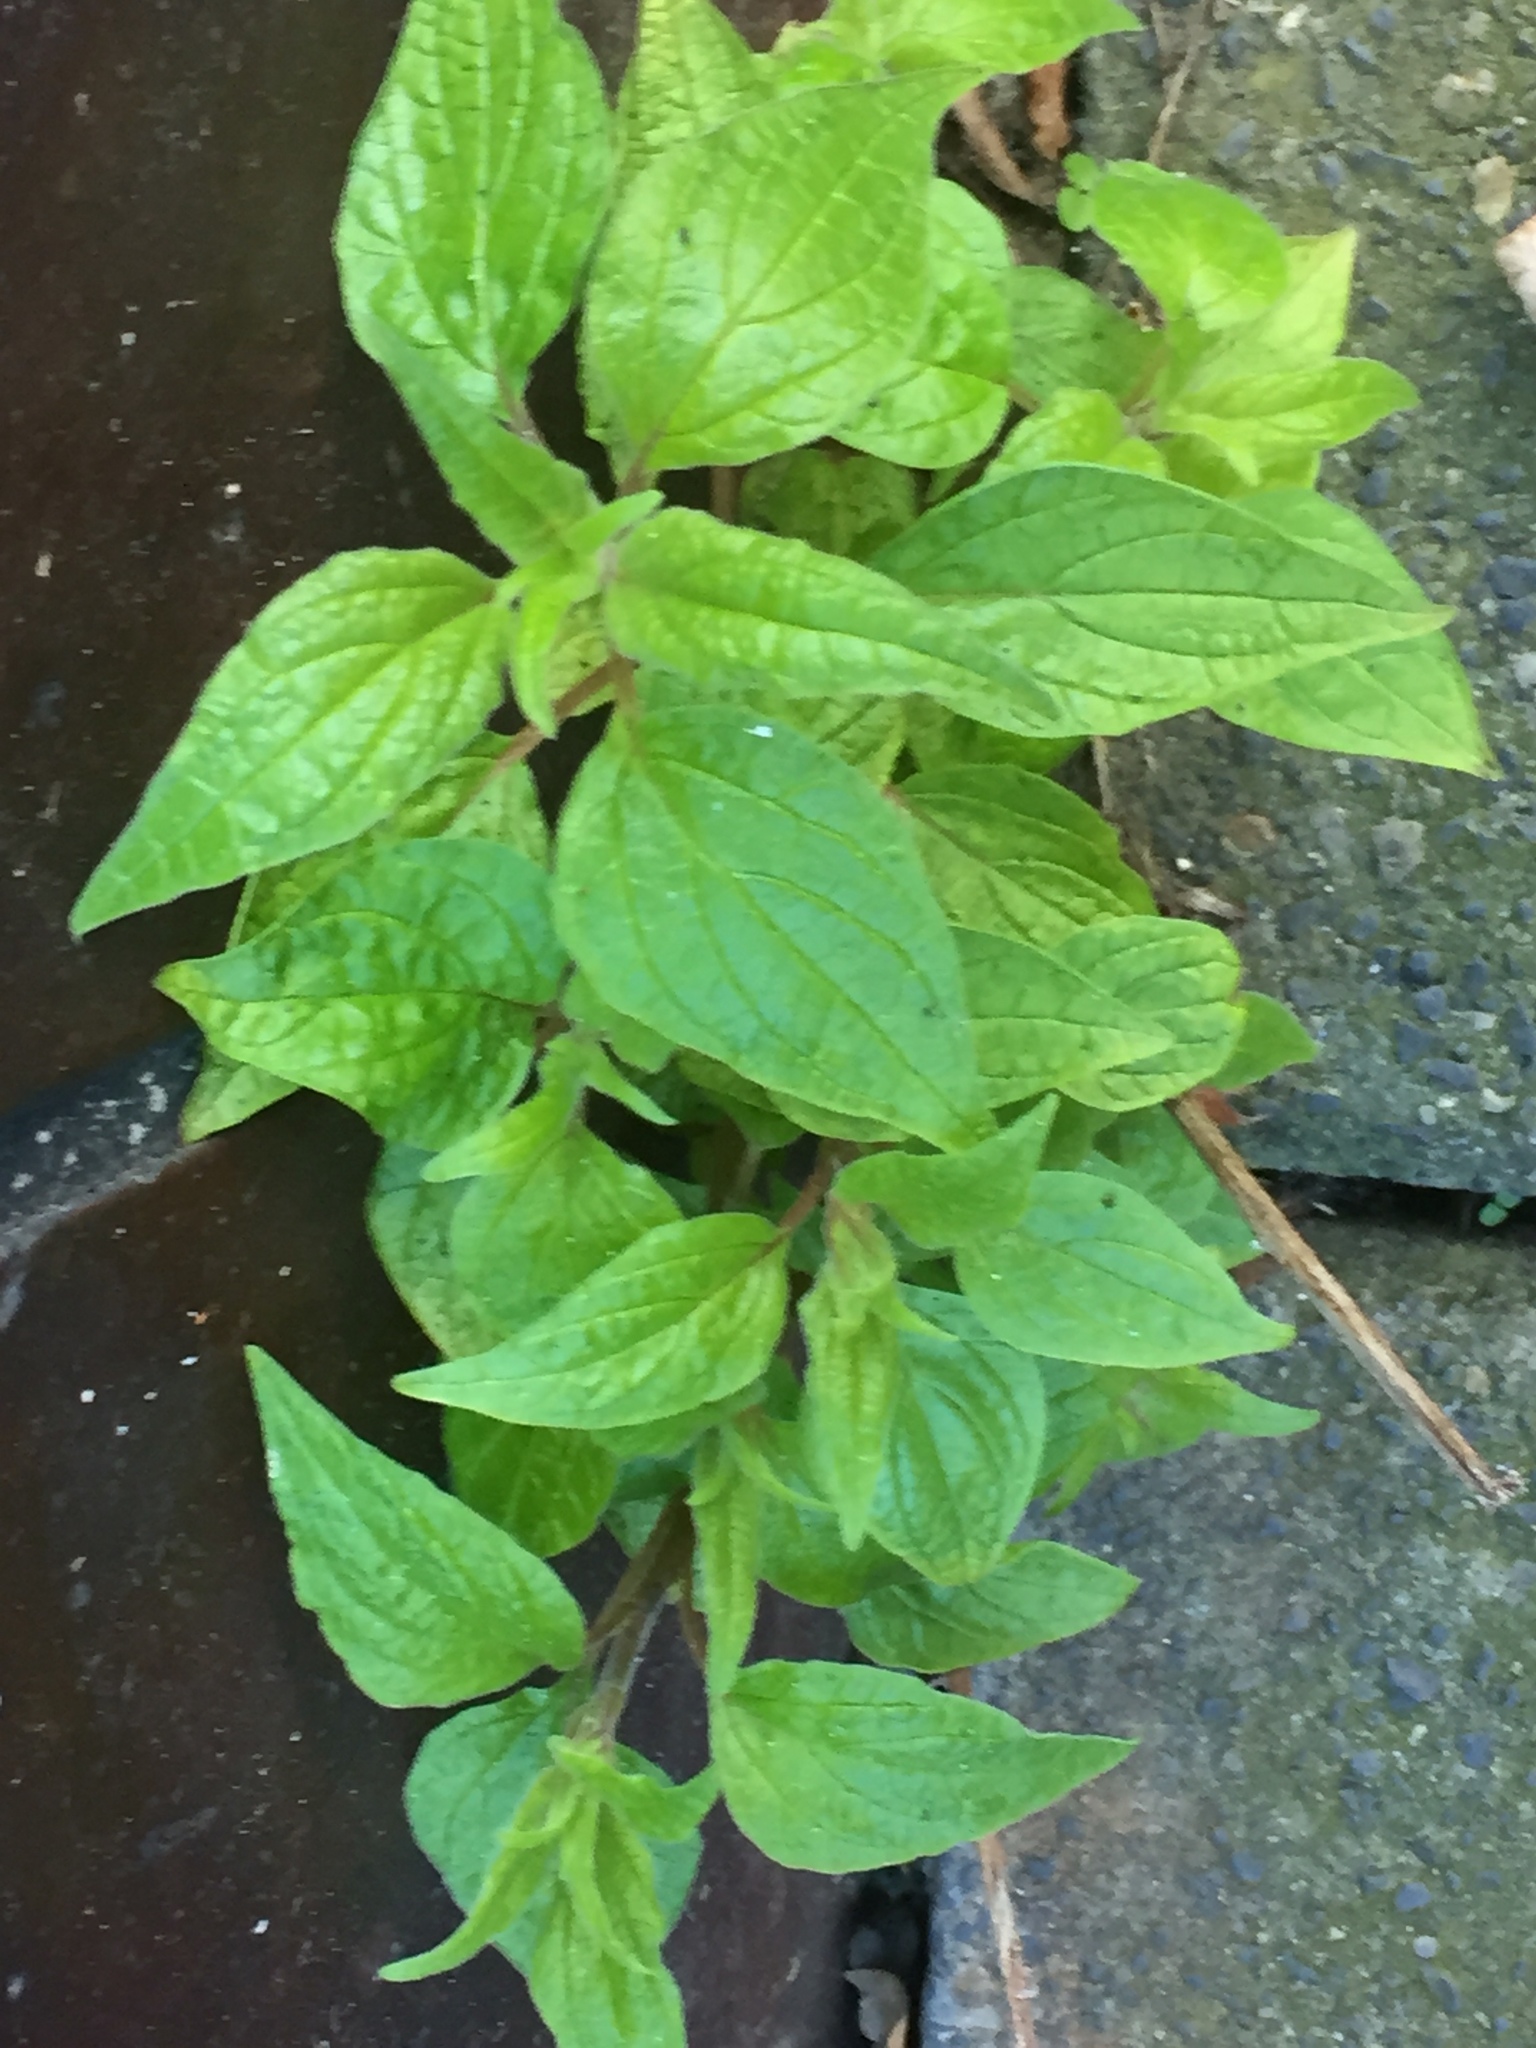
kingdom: Plantae
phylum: Tracheophyta
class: Magnoliopsida
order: Rosales
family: Urticaceae
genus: Parietaria
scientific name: Parietaria officinalis
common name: Eastern pellitory-of-the-wall
